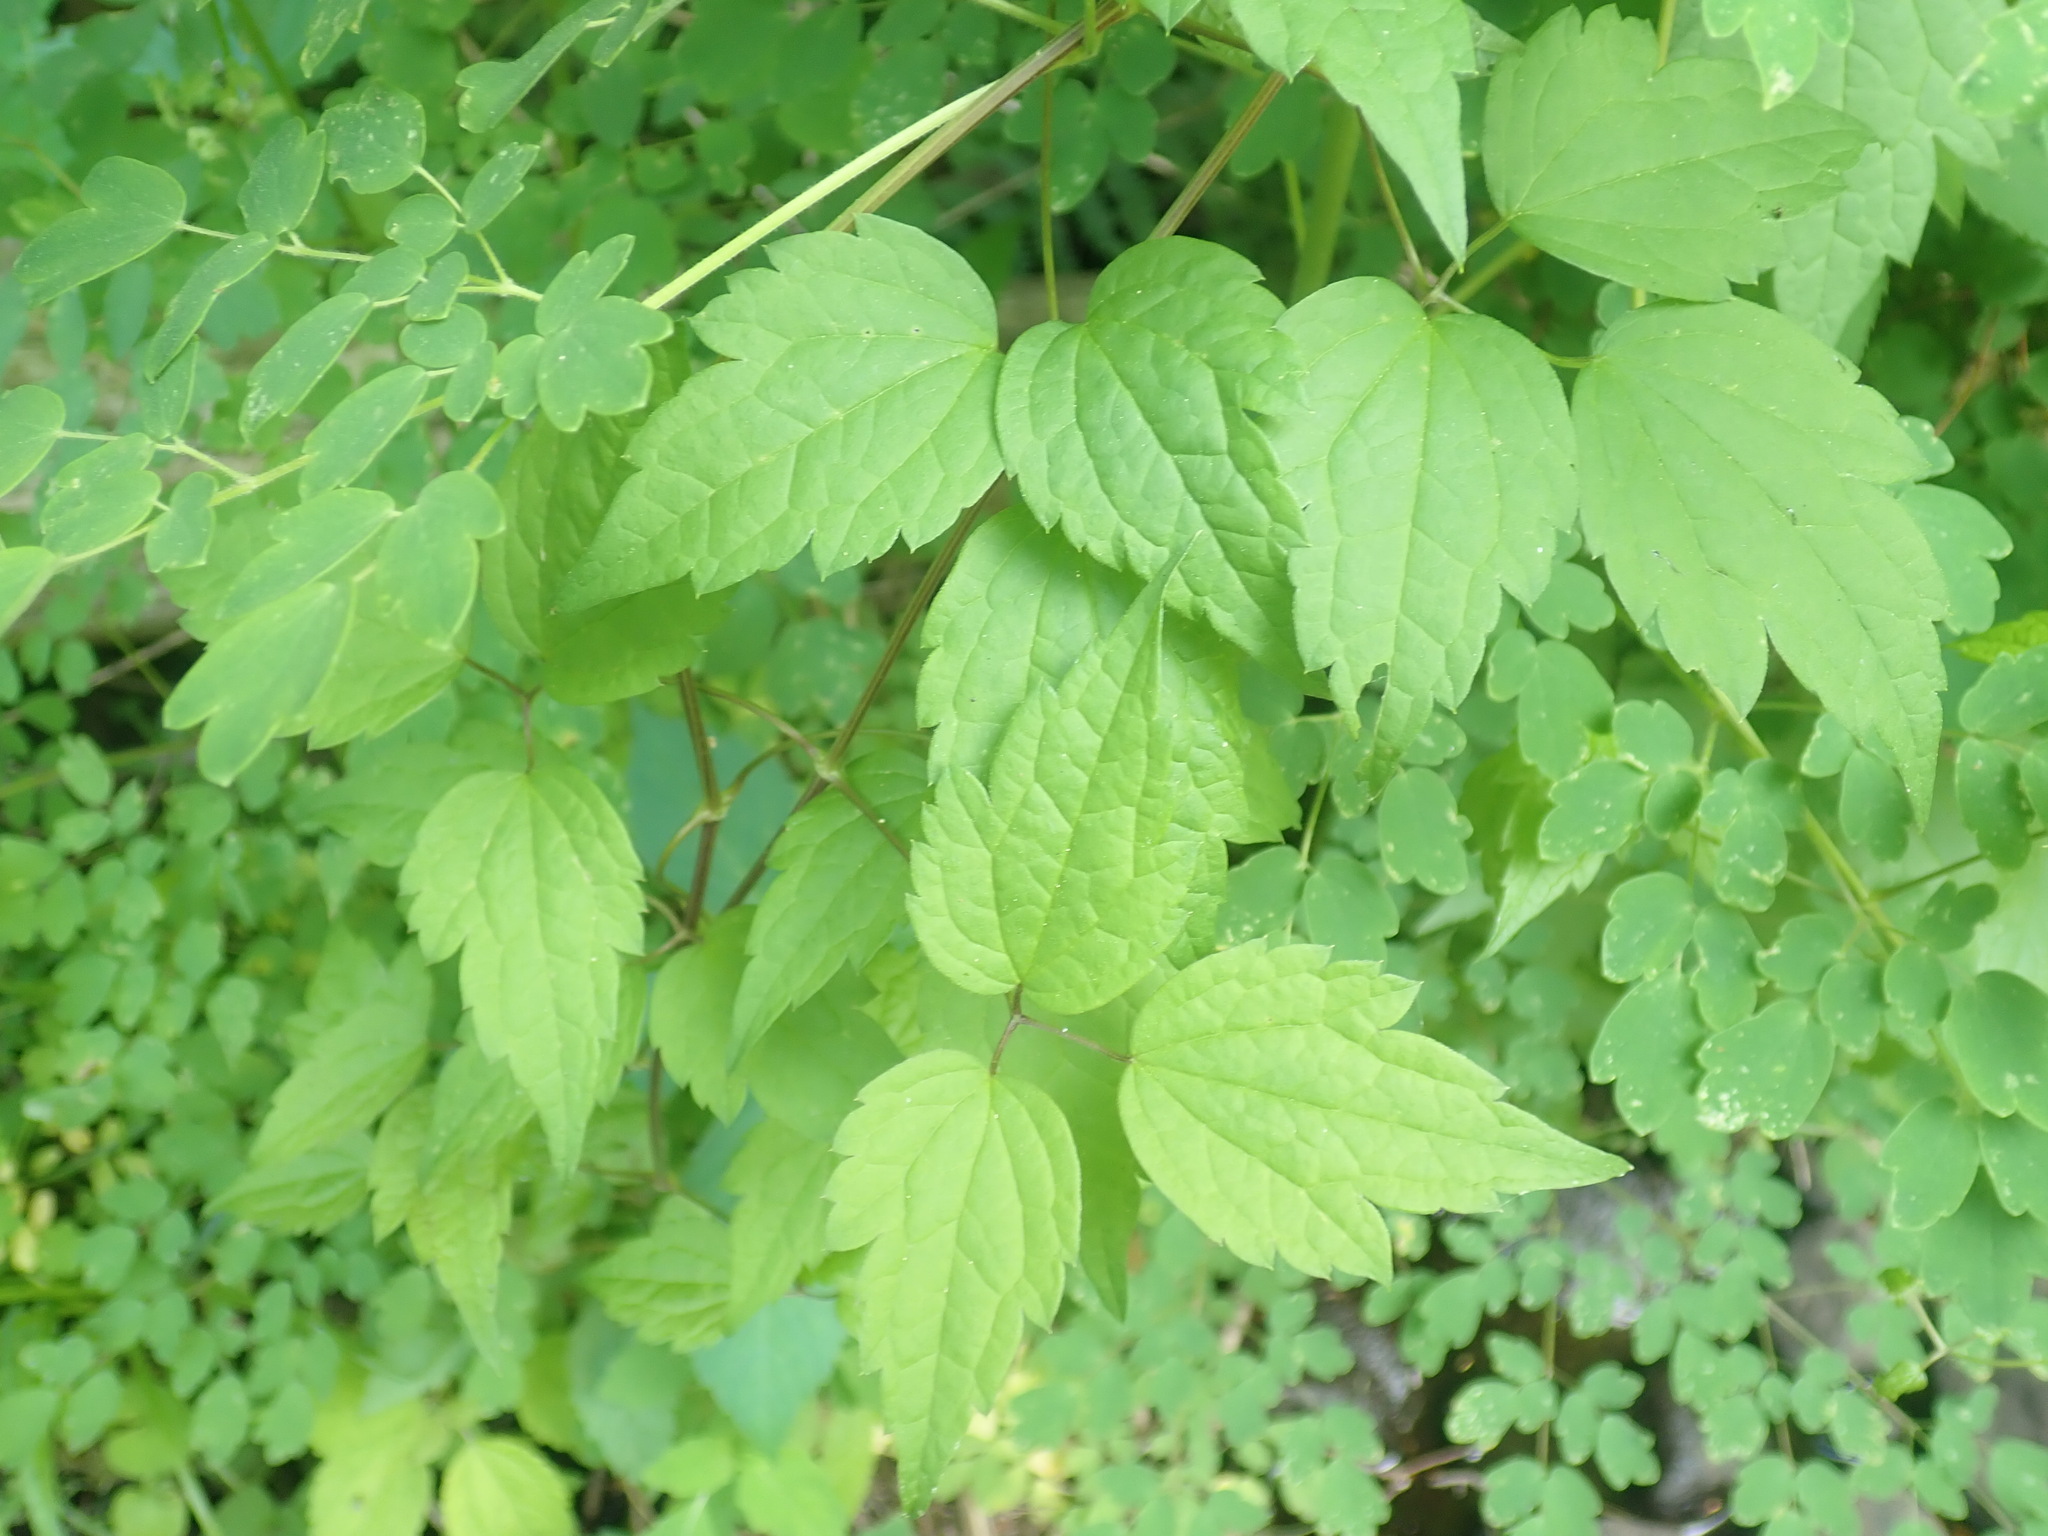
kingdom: Plantae
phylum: Tracheophyta
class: Magnoliopsida
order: Ranunculales
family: Ranunculaceae
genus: Clematis
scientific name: Clematis virginiana
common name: Virgin's-bower
